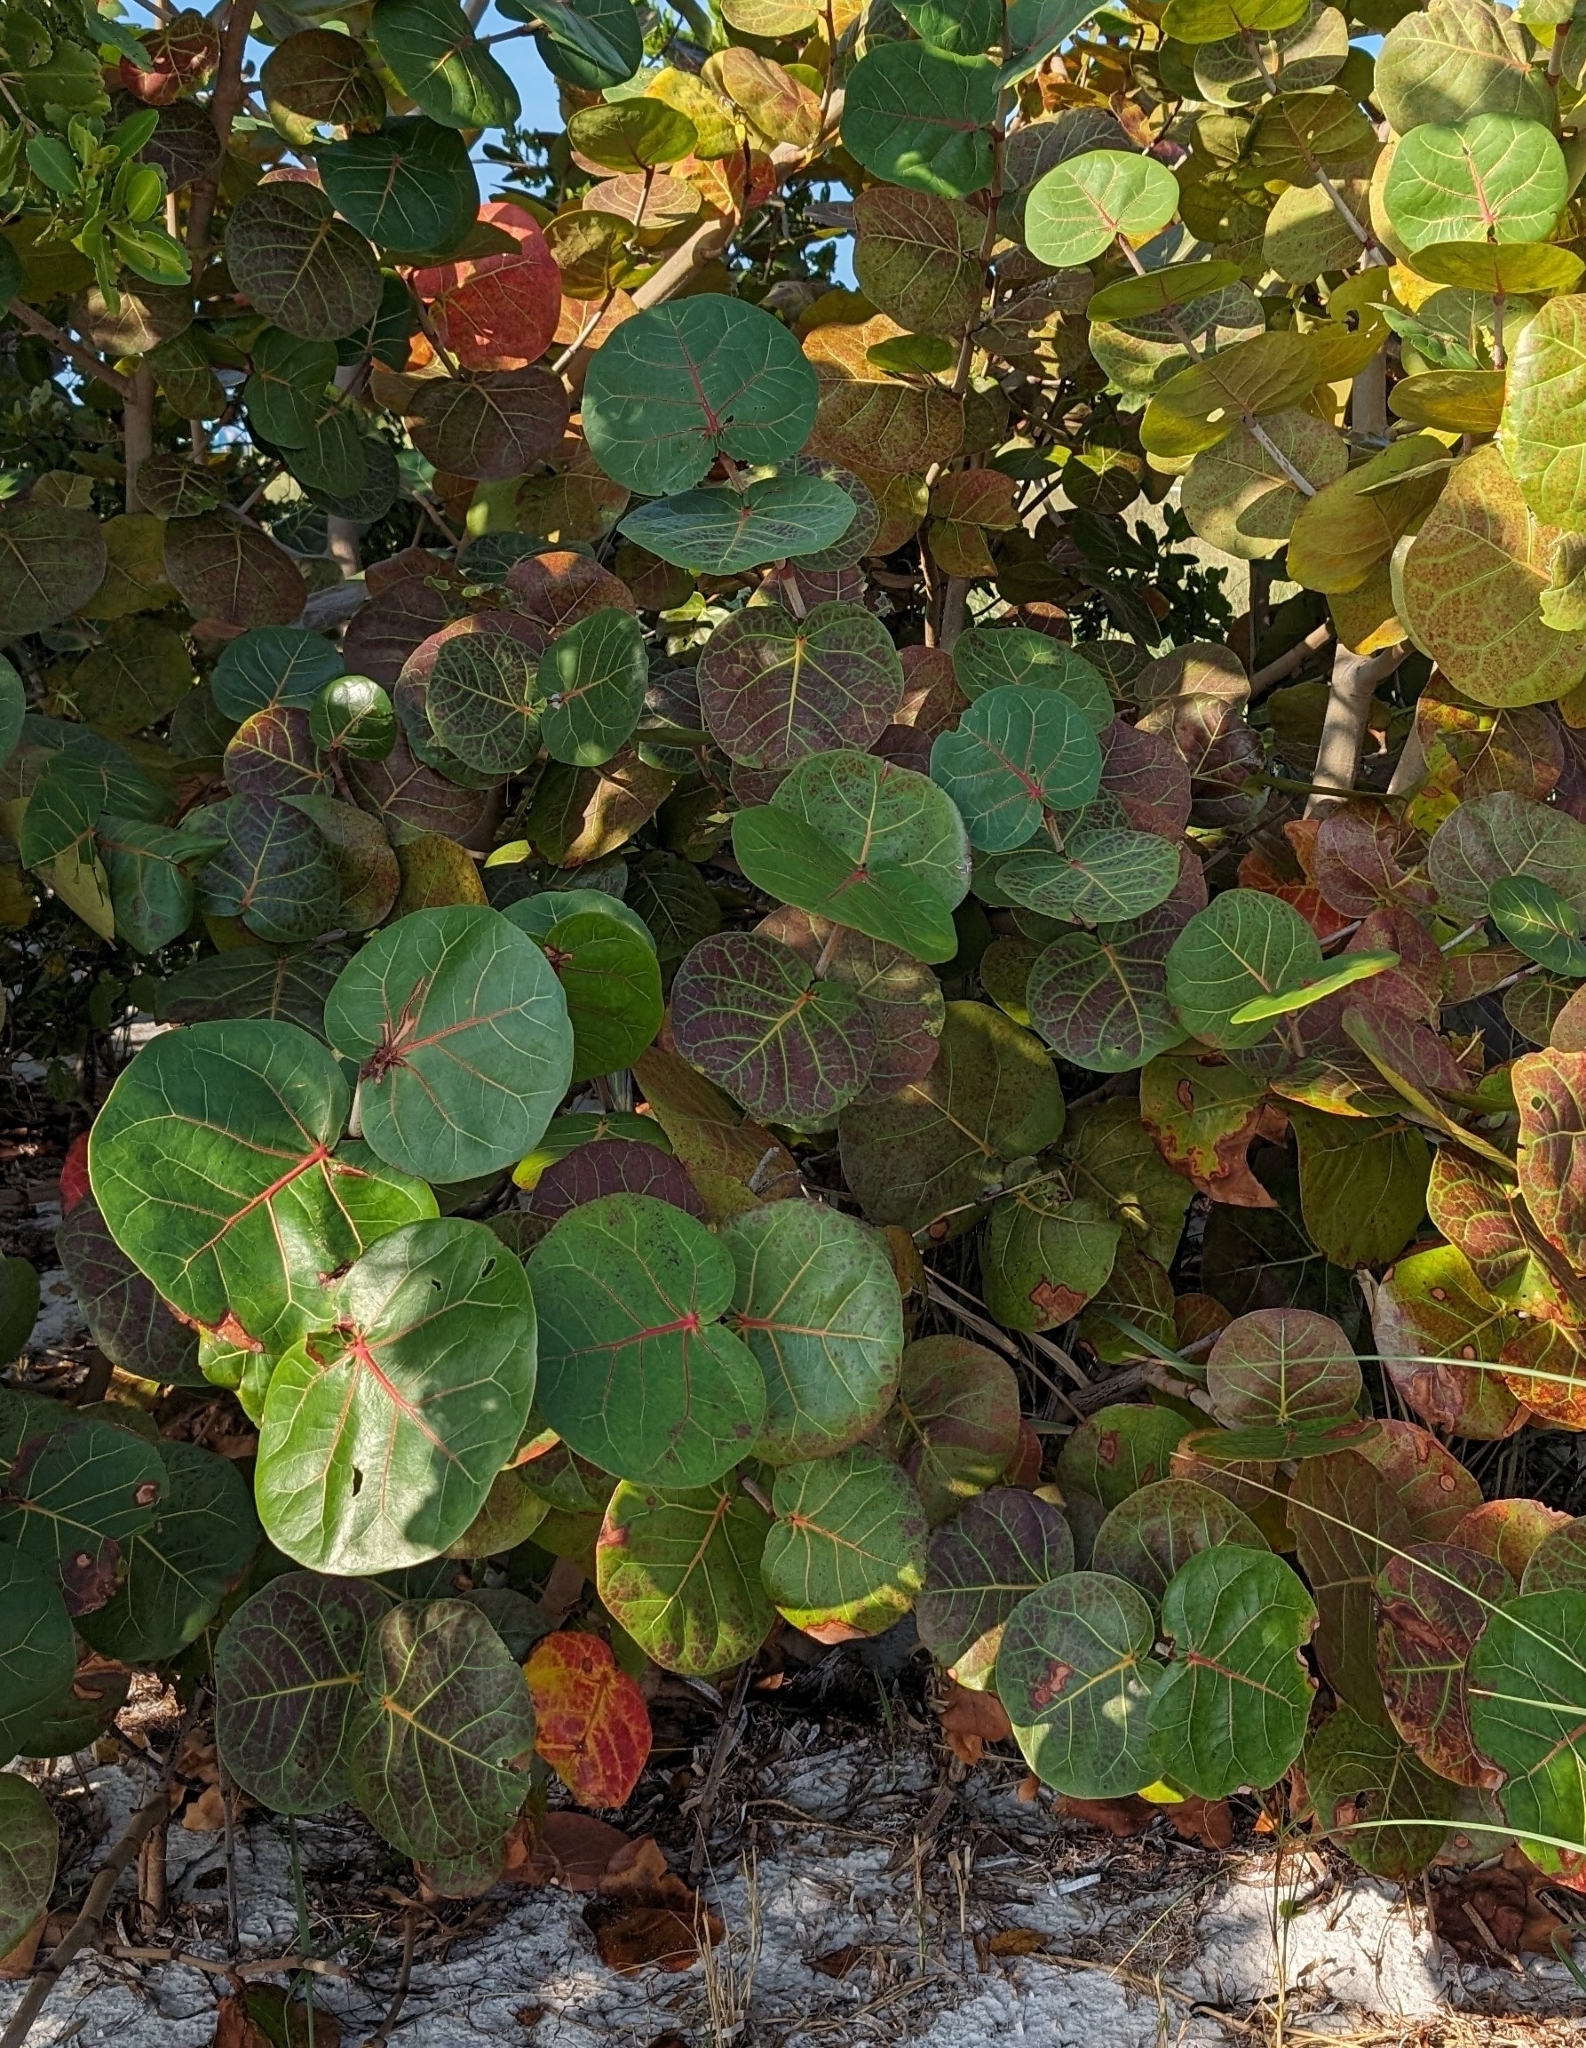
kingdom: Plantae
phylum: Tracheophyta
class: Magnoliopsida
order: Caryophyllales
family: Polygonaceae
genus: Coccoloba
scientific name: Coccoloba uvifera
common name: Seagrape
